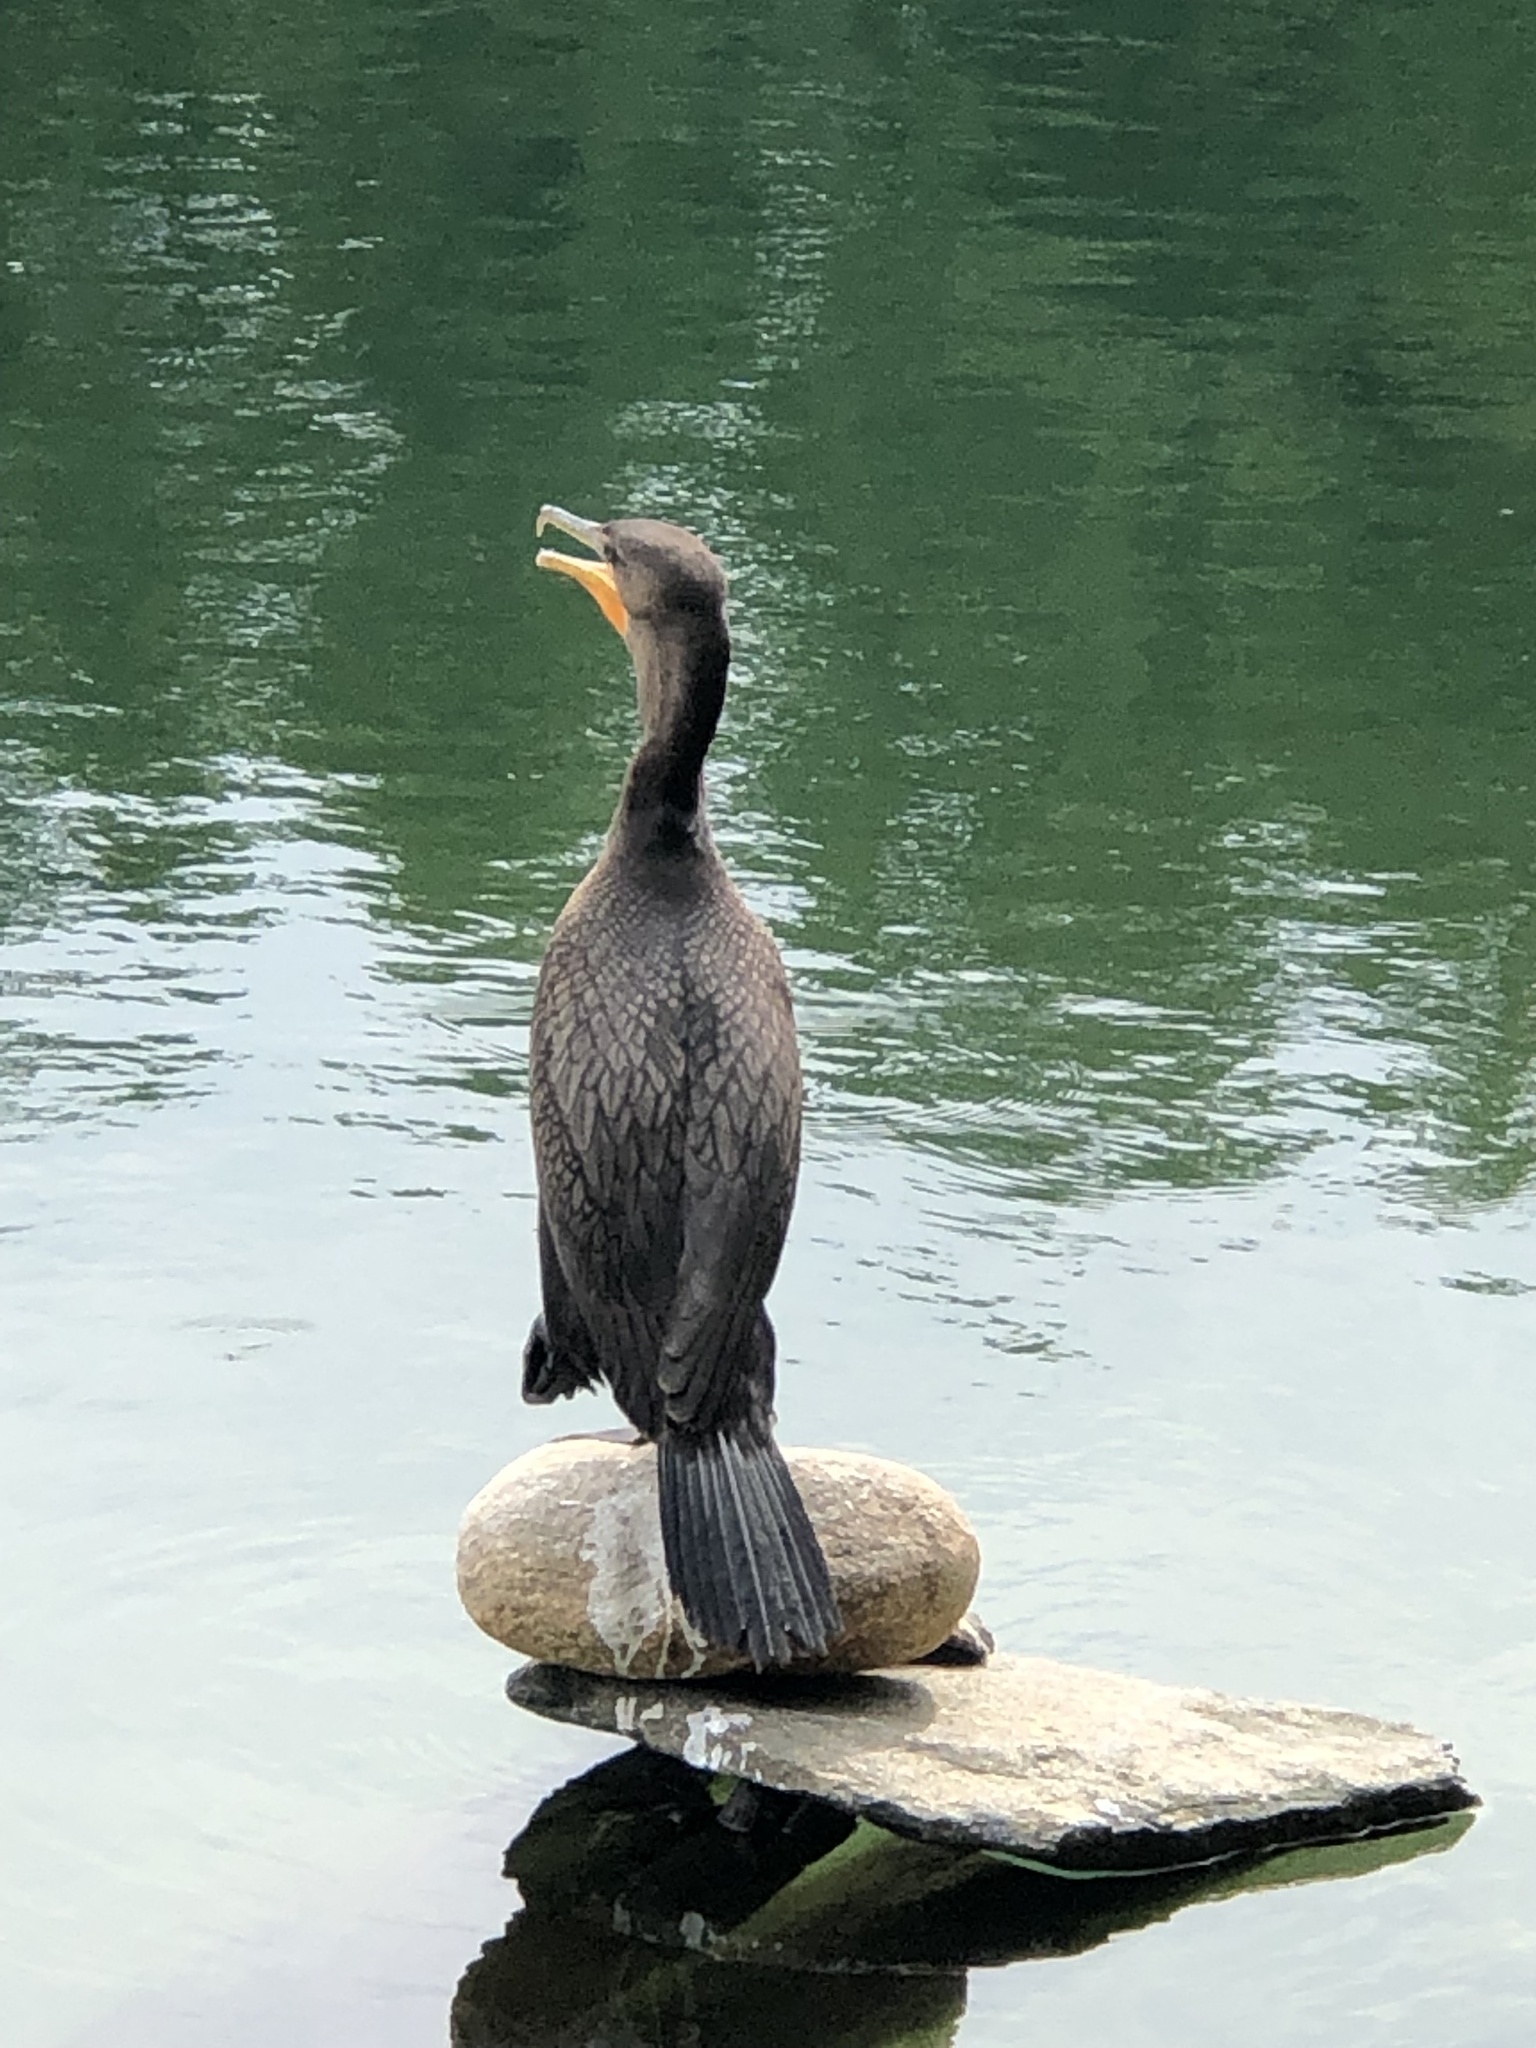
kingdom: Animalia
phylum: Chordata
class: Aves
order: Suliformes
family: Phalacrocoracidae
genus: Phalacrocorax
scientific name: Phalacrocorax auritus
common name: Double-crested cormorant
